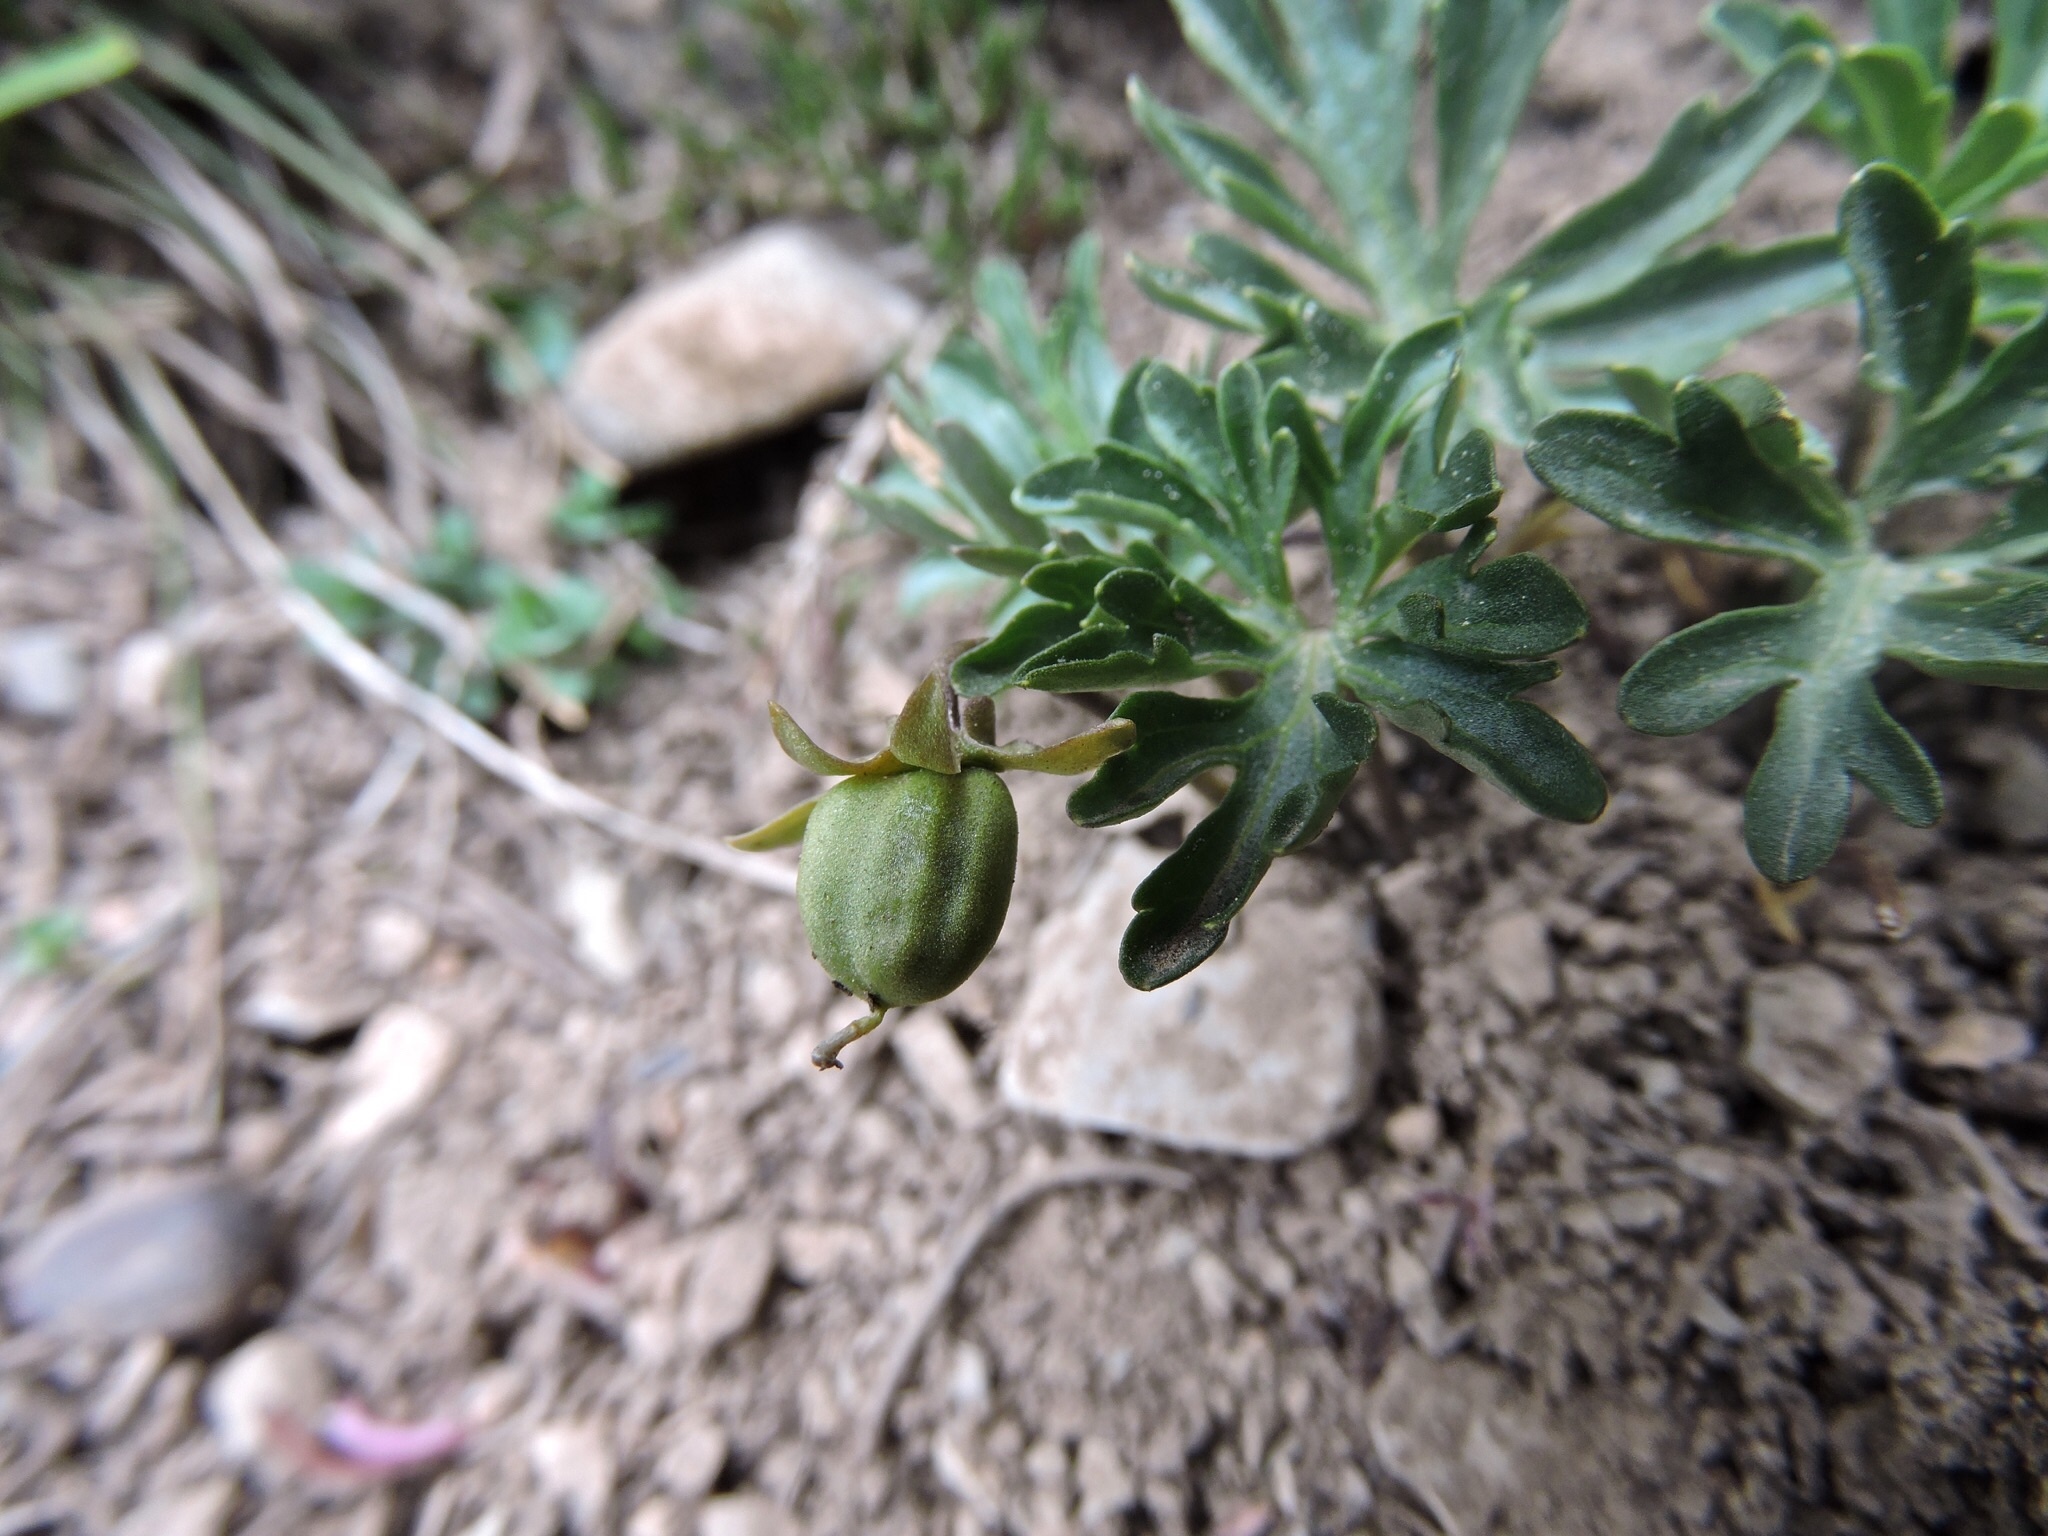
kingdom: Plantae
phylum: Tracheophyta
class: Magnoliopsida
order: Malpighiales
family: Violaceae
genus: Viola
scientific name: Viola pinnata
